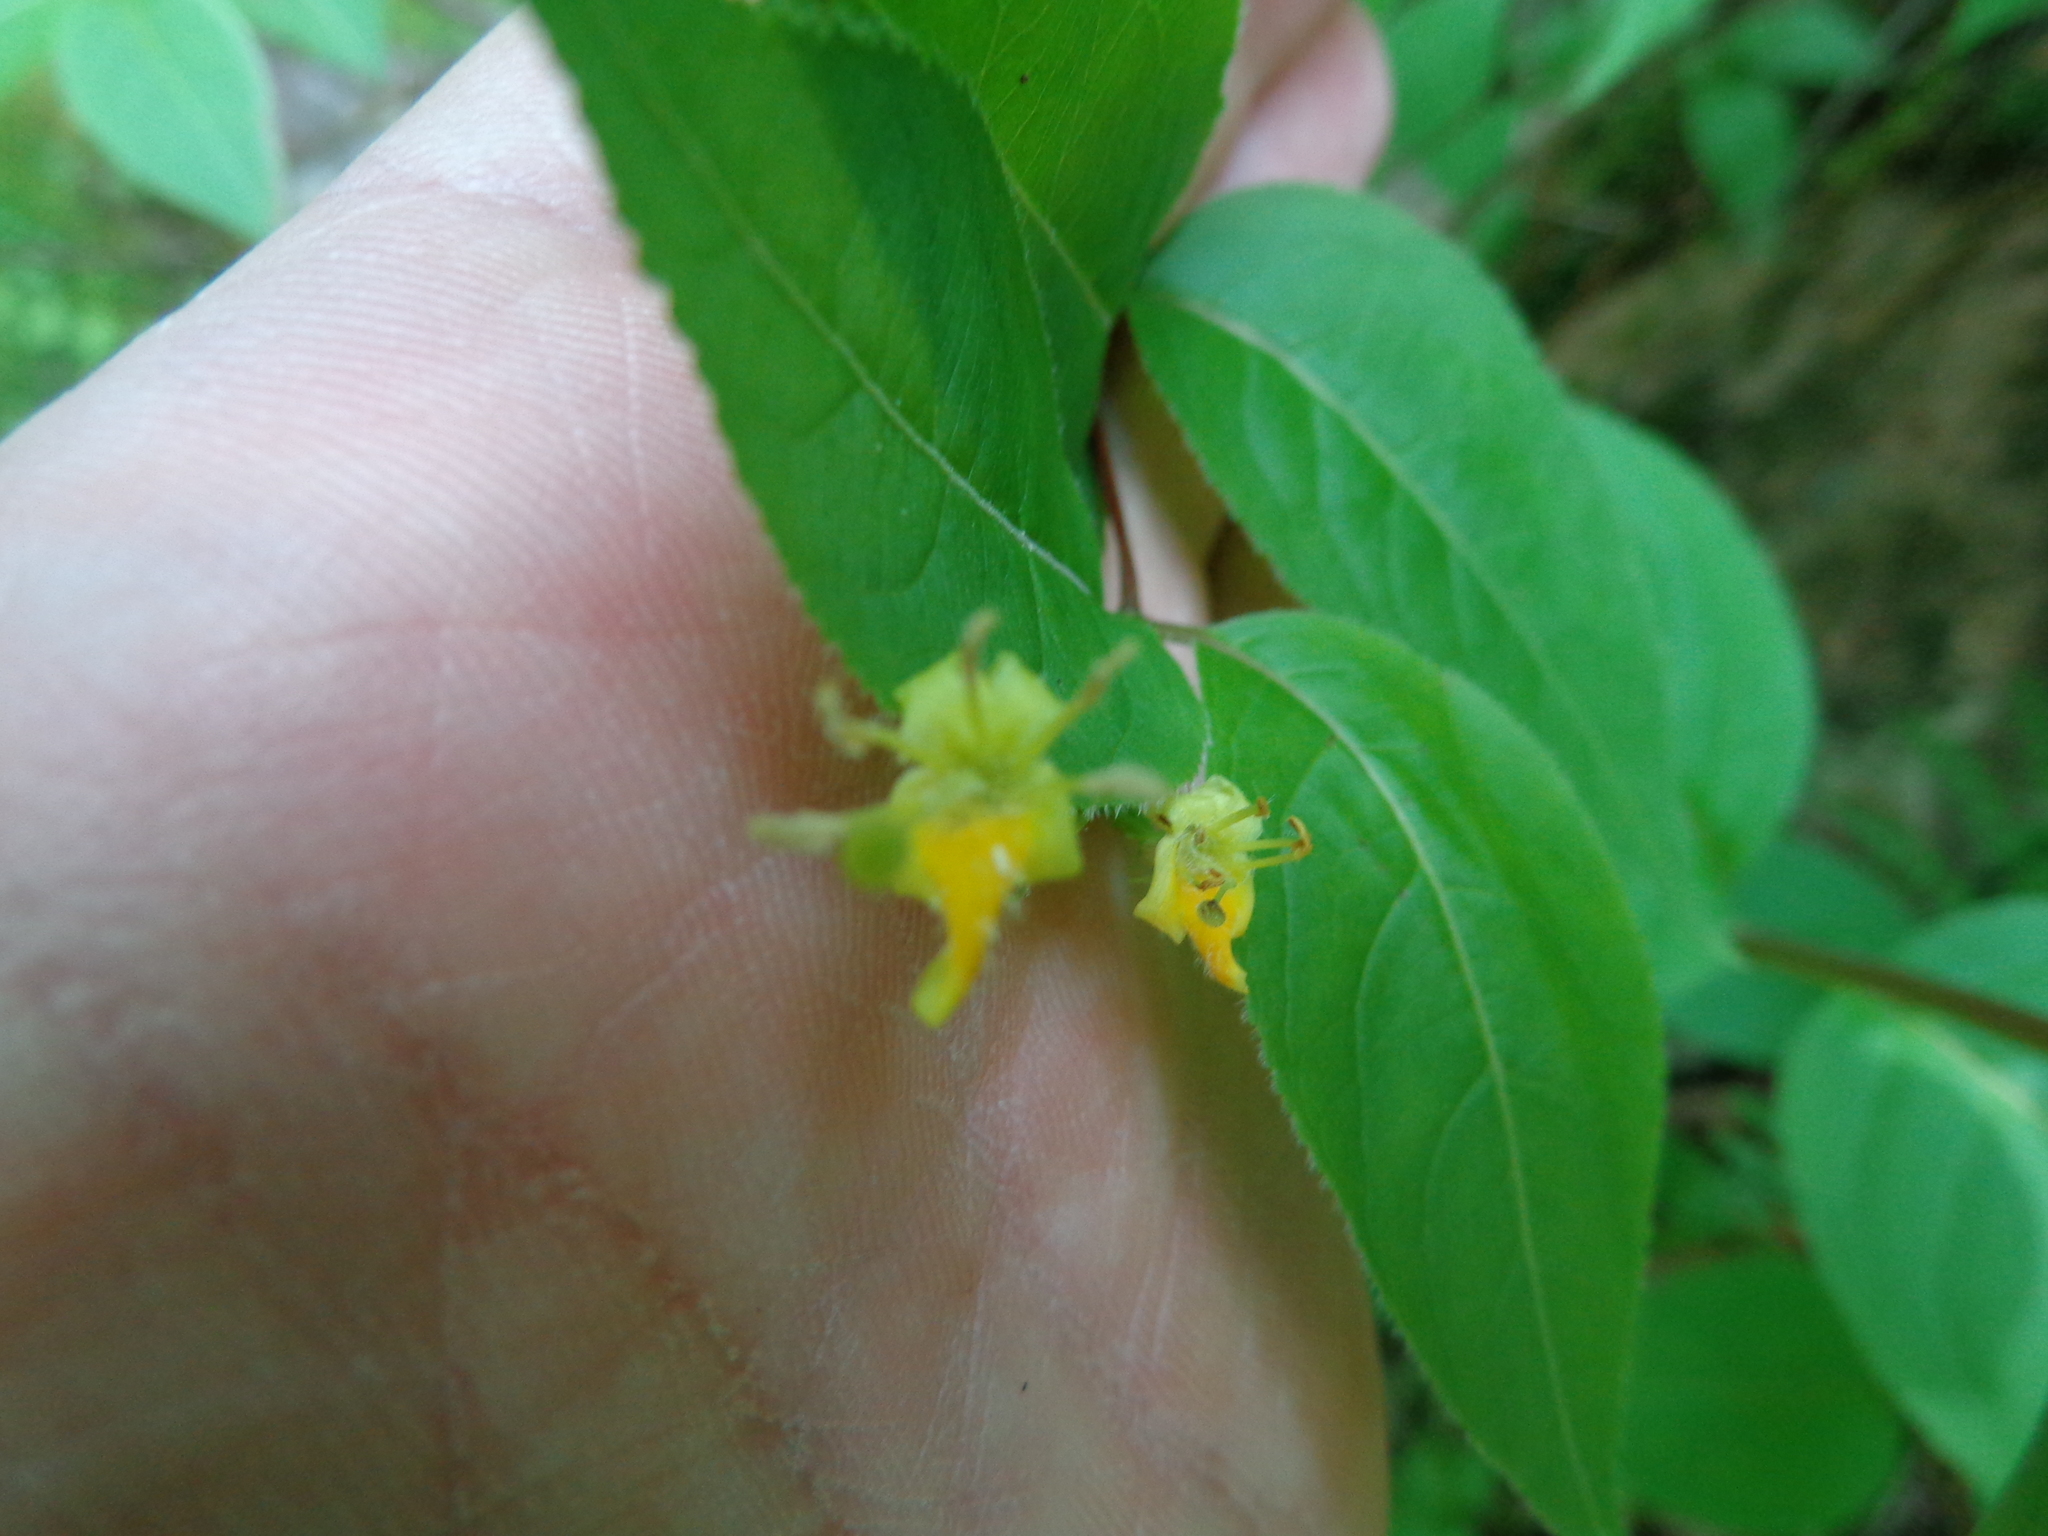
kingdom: Plantae
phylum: Tracheophyta
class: Magnoliopsida
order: Dipsacales
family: Caprifoliaceae
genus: Diervilla
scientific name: Diervilla lonicera
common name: Bush-honeysuckle
